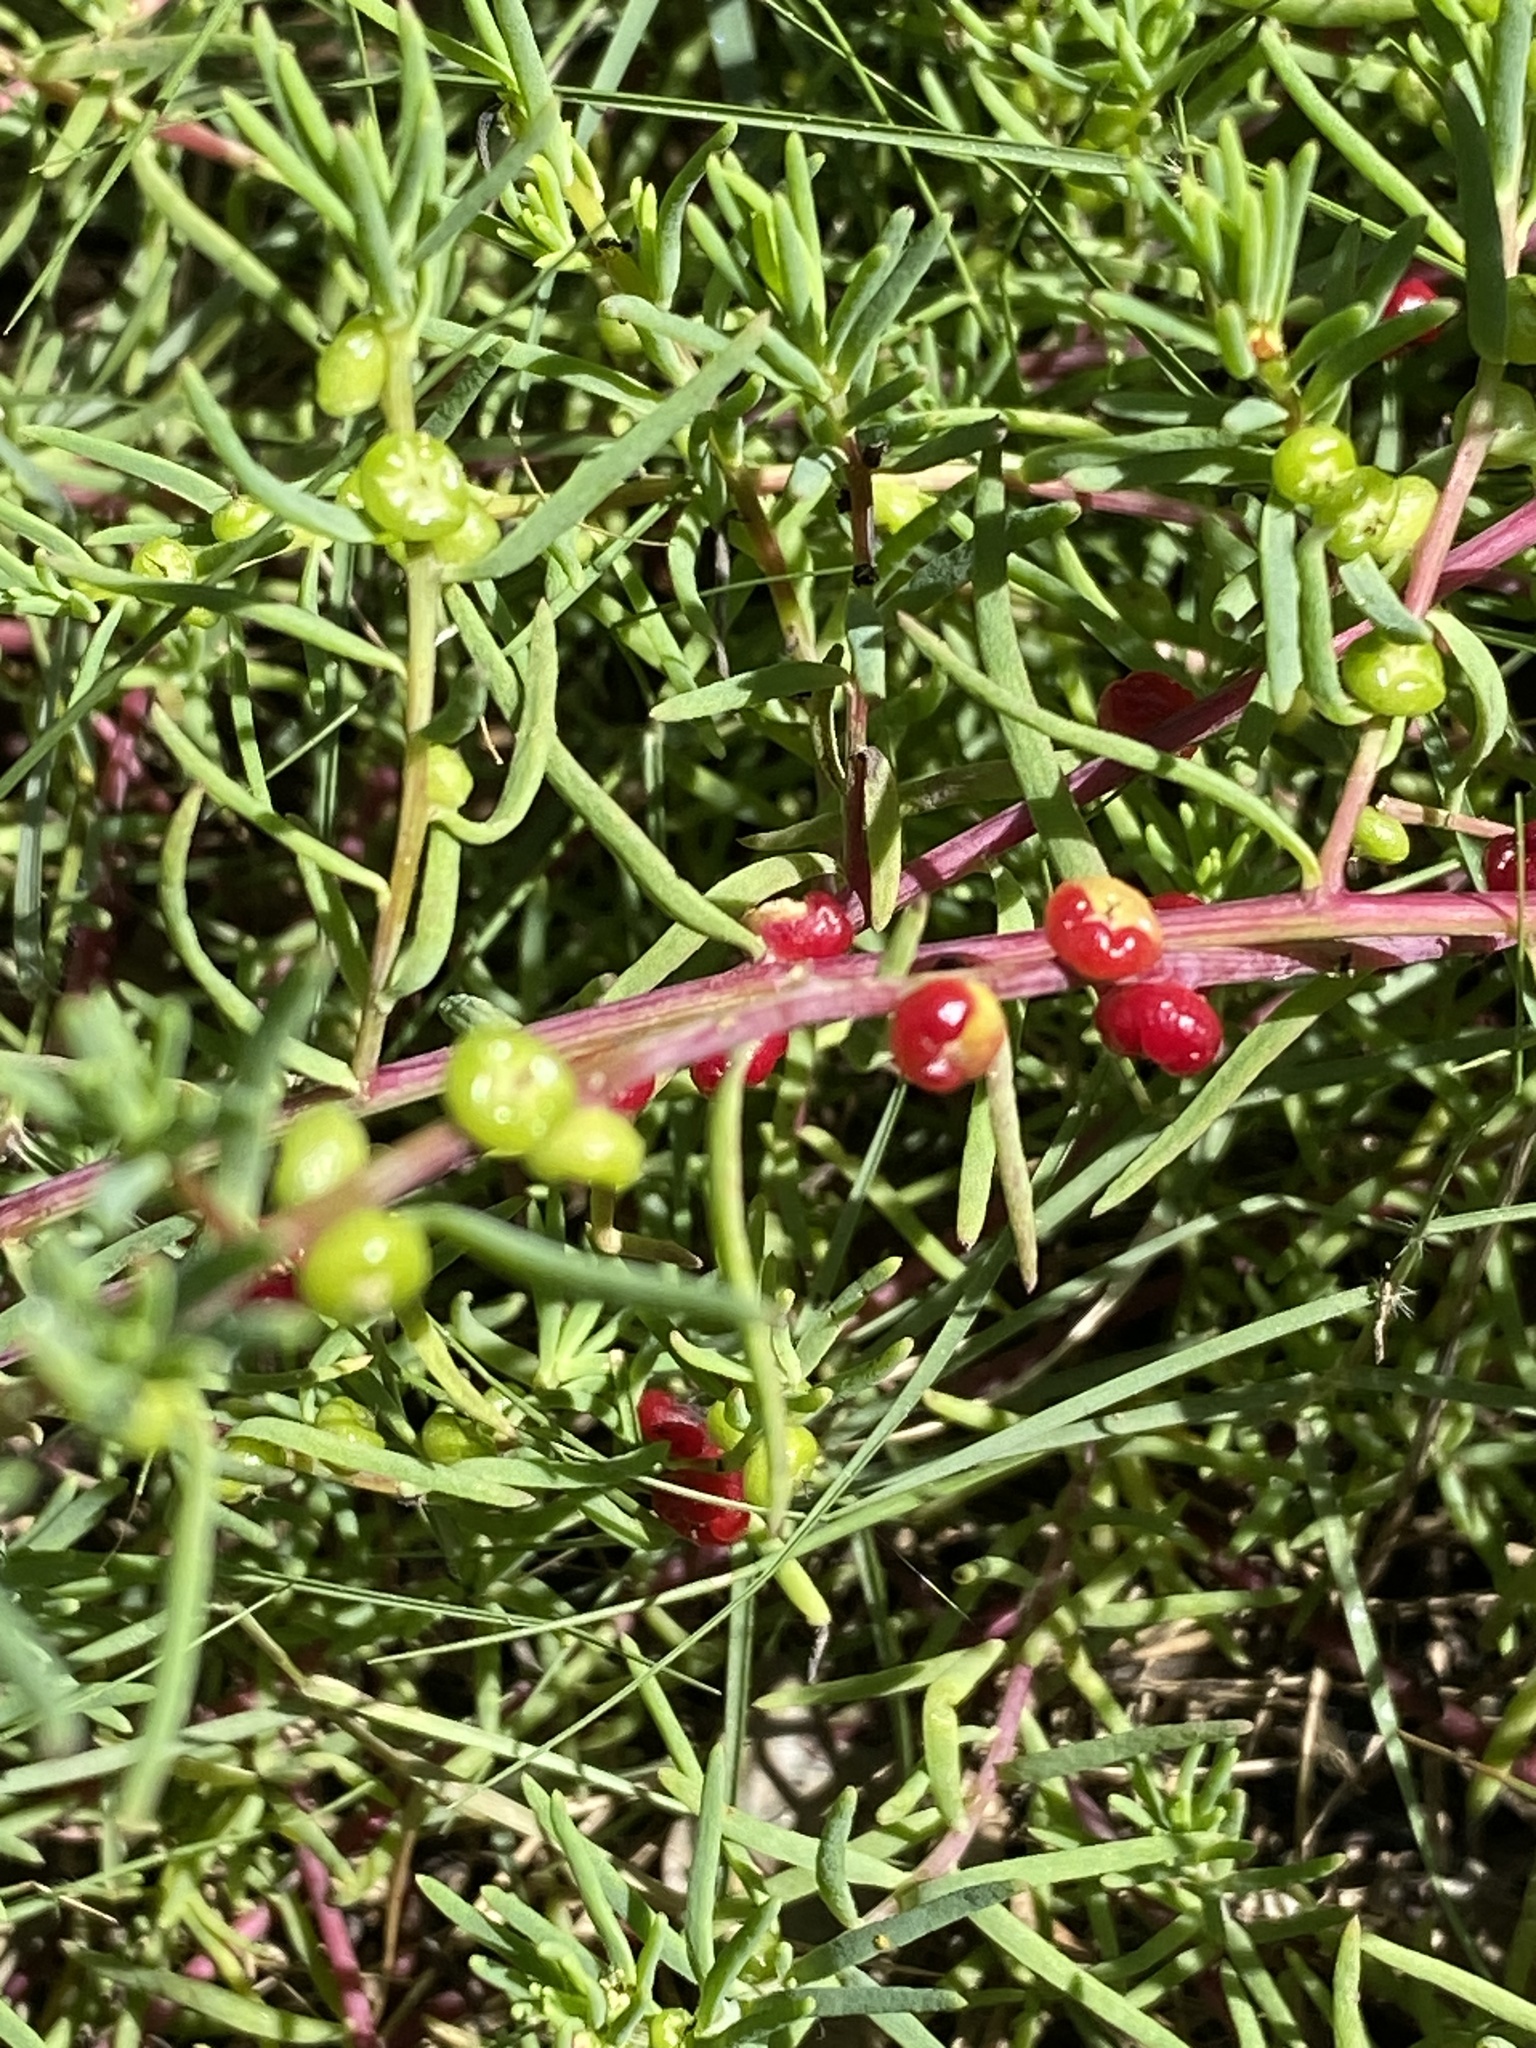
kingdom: Plantae
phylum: Tracheophyta
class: Magnoliopsida
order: Caryophyllales
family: Amaranthaceae
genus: Enchylaena
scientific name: Enchylaena tomentosa
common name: Ruby saltbush
